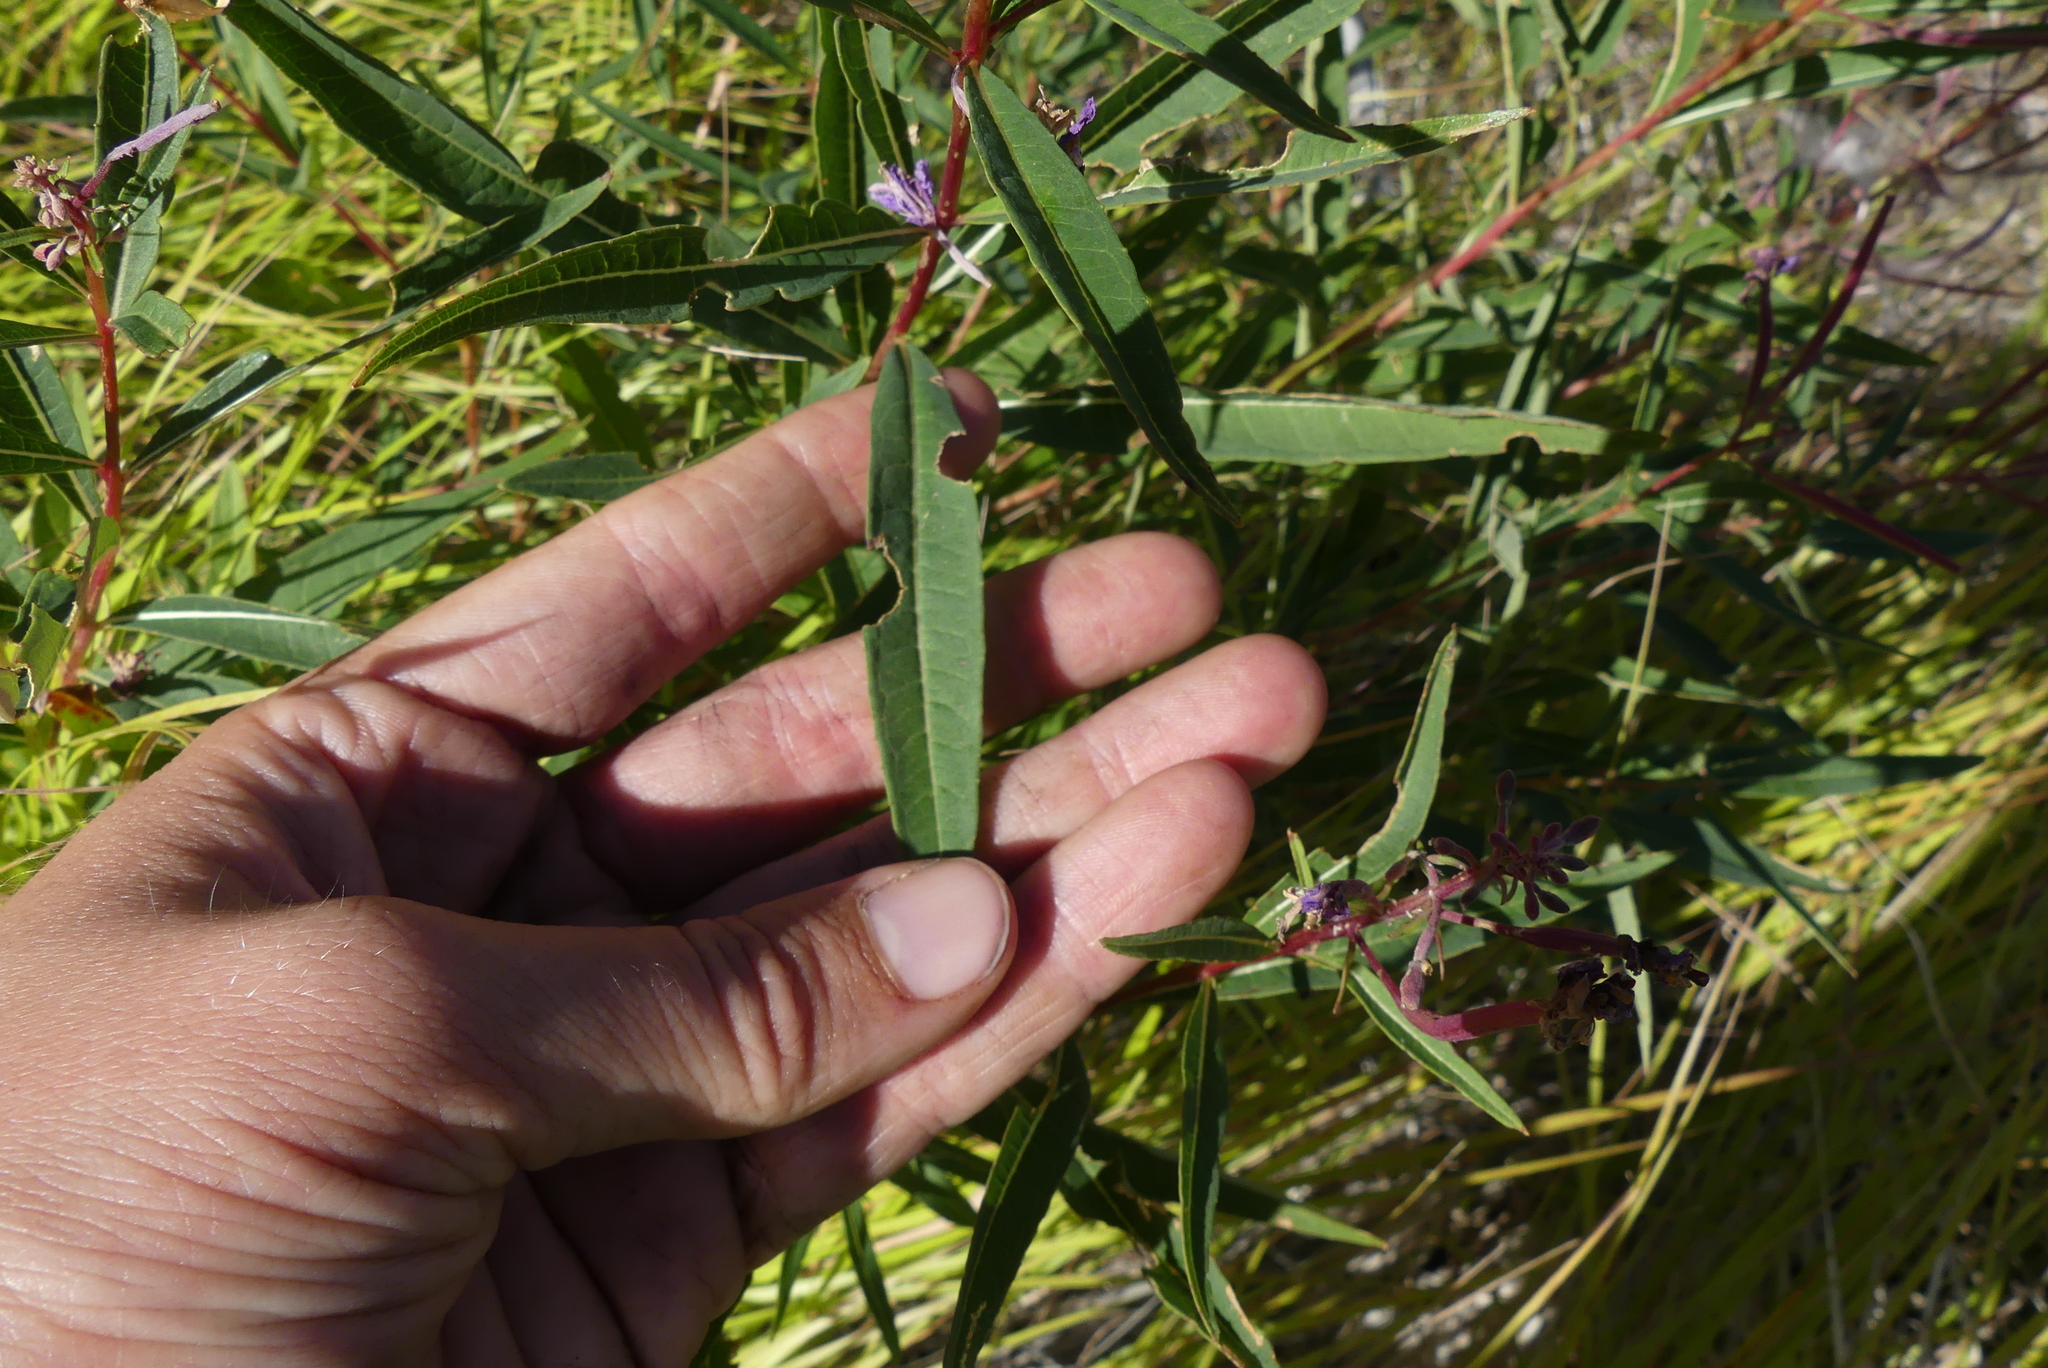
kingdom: Plantae
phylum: Tracheophyta
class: Magnoliopsida
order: Myrtales
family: Onagraceae
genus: Chamaenerion
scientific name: Chamaenerion angustifolium
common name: Fireweed
